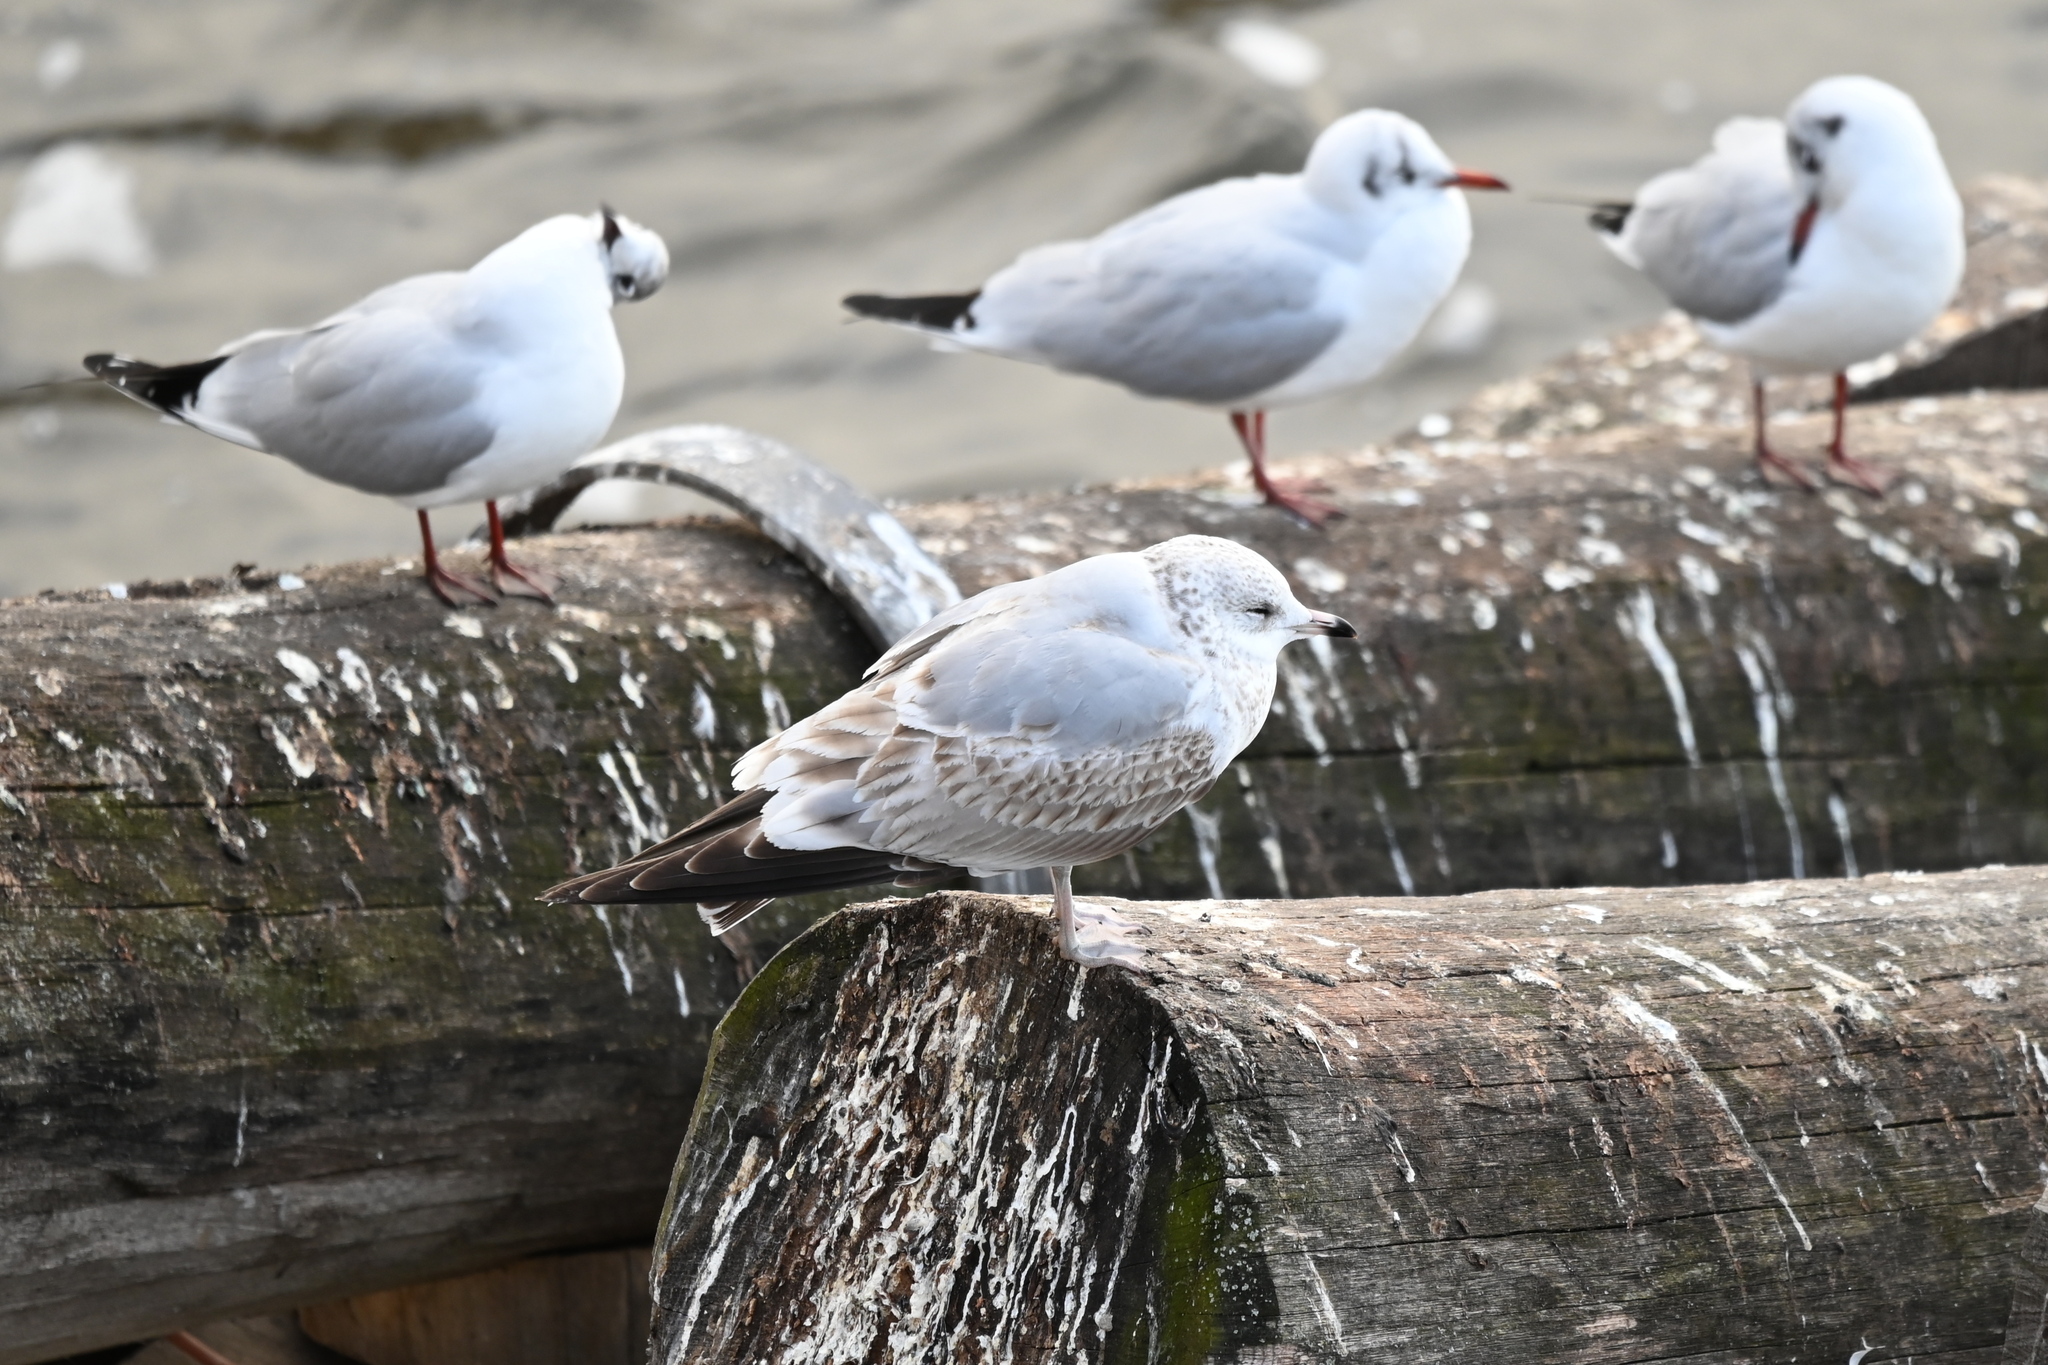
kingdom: Animalia
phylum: Chordata
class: Aves
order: Charadriiformes
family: Laridae
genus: Larus
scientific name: Larus canus
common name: Mew gull
